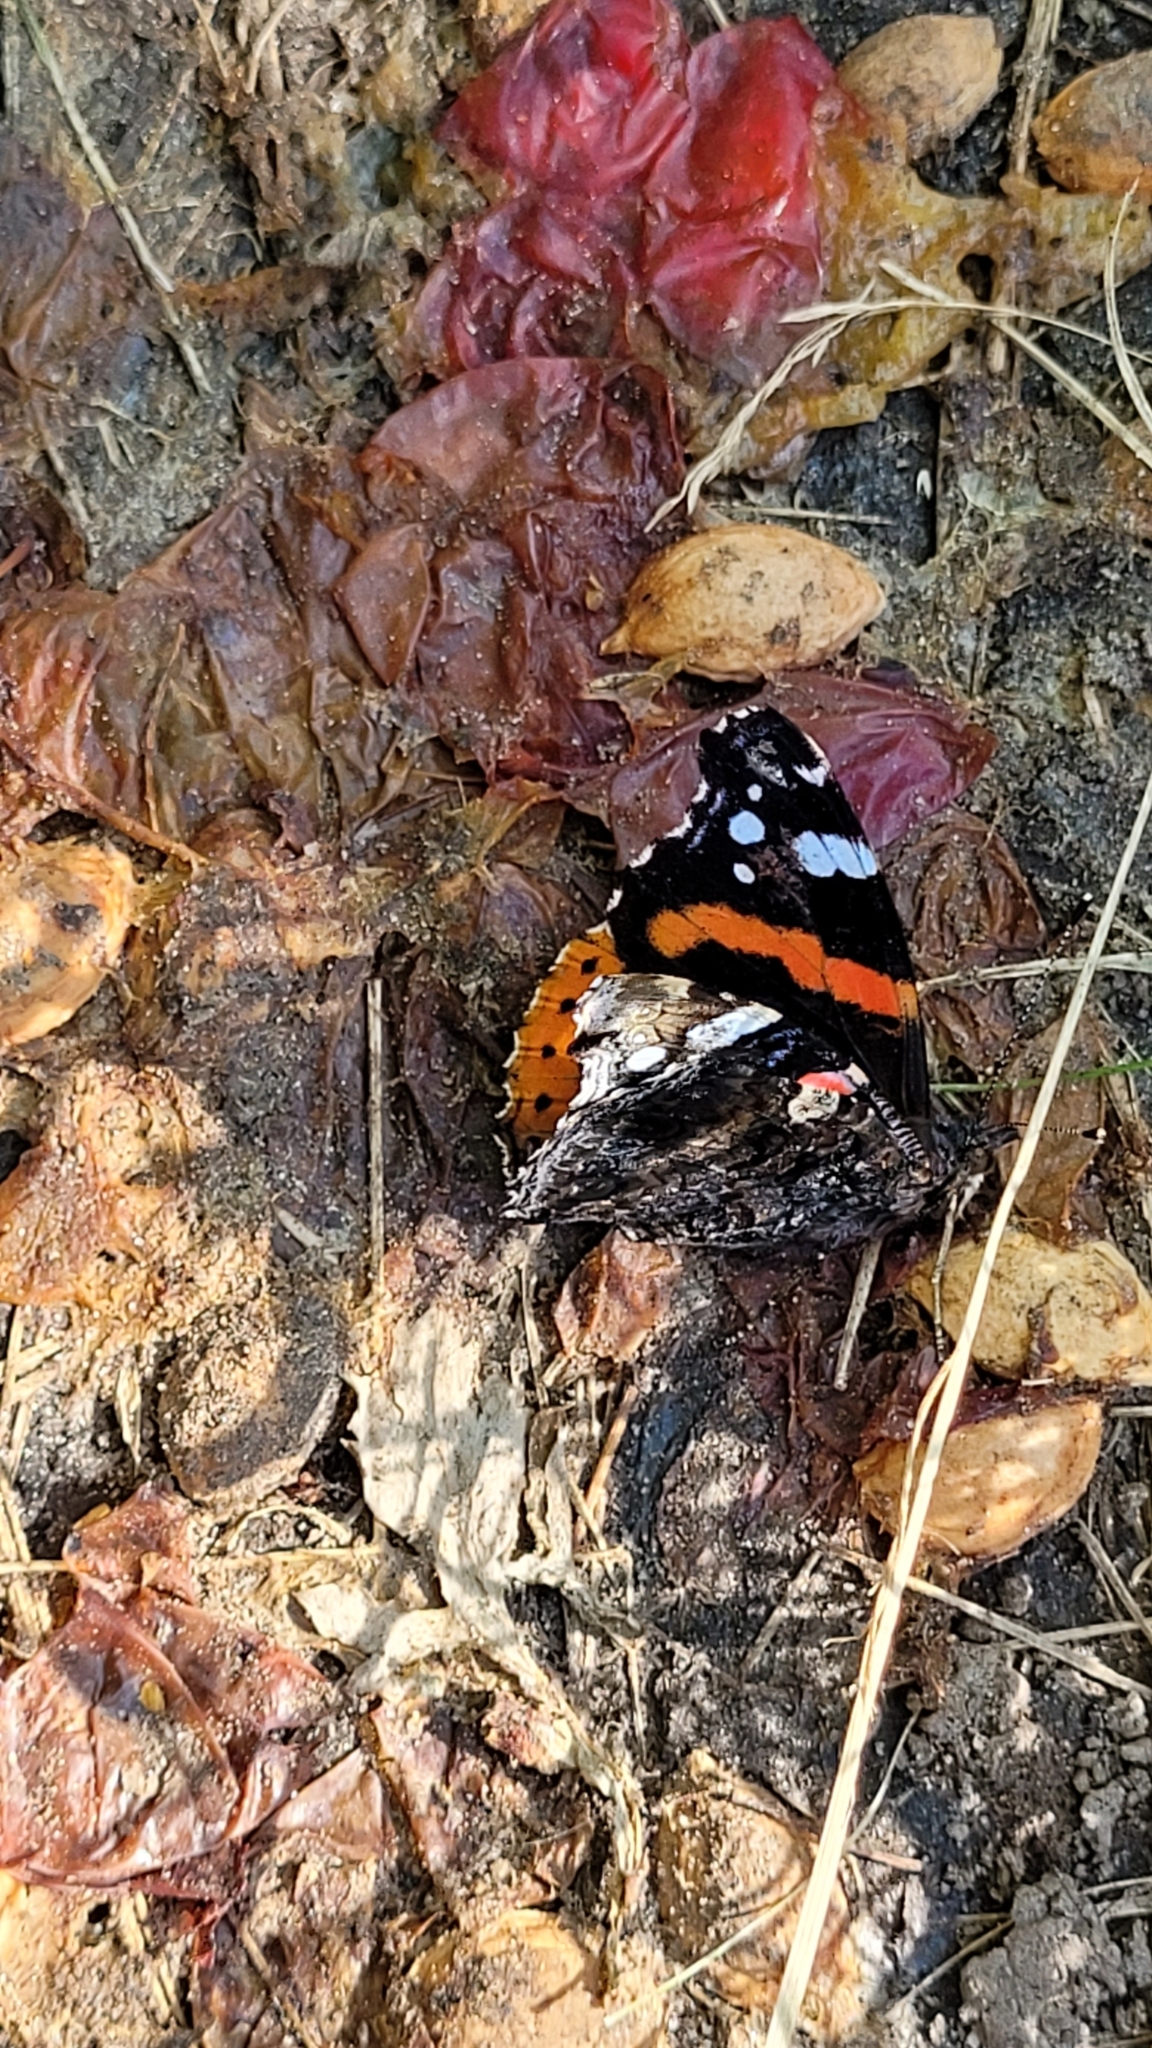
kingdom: Animalia
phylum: Arthropoda
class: Insecta
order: Lepidoptera
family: Nymphalidae
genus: Vanessa
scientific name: Vanessa atalanta
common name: Red admiral
